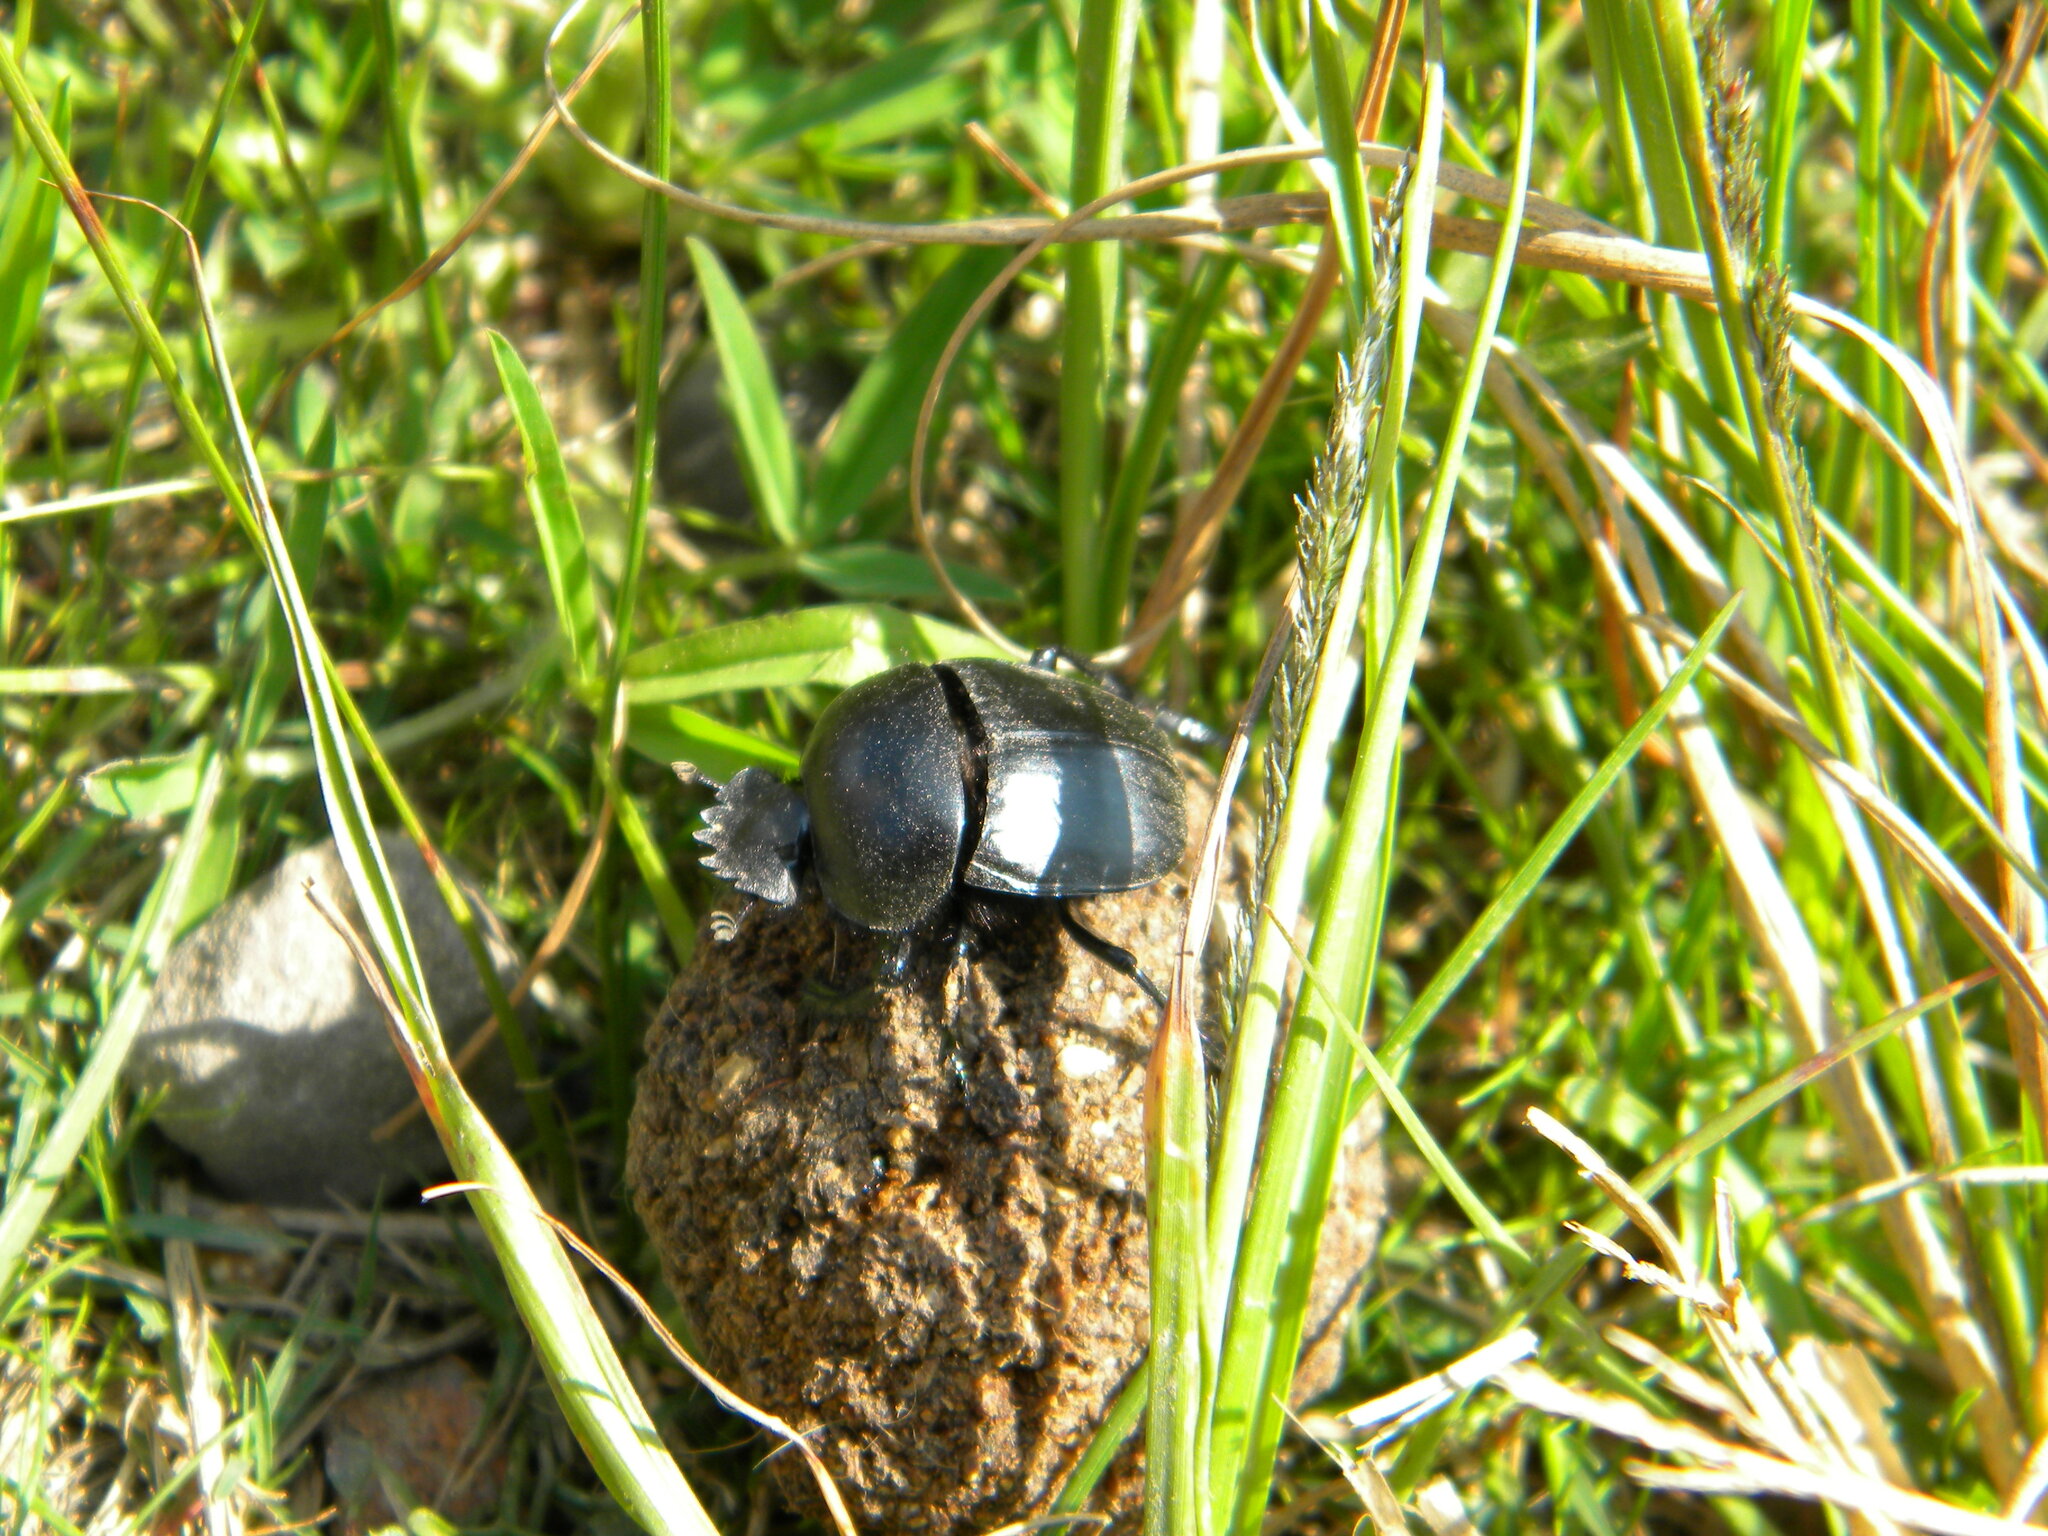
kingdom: Animalia
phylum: Arthropoda
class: Insecta
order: Coleoptera
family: Scarabaeidae
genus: Scarabaeus
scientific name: Scarabaeus convexus
